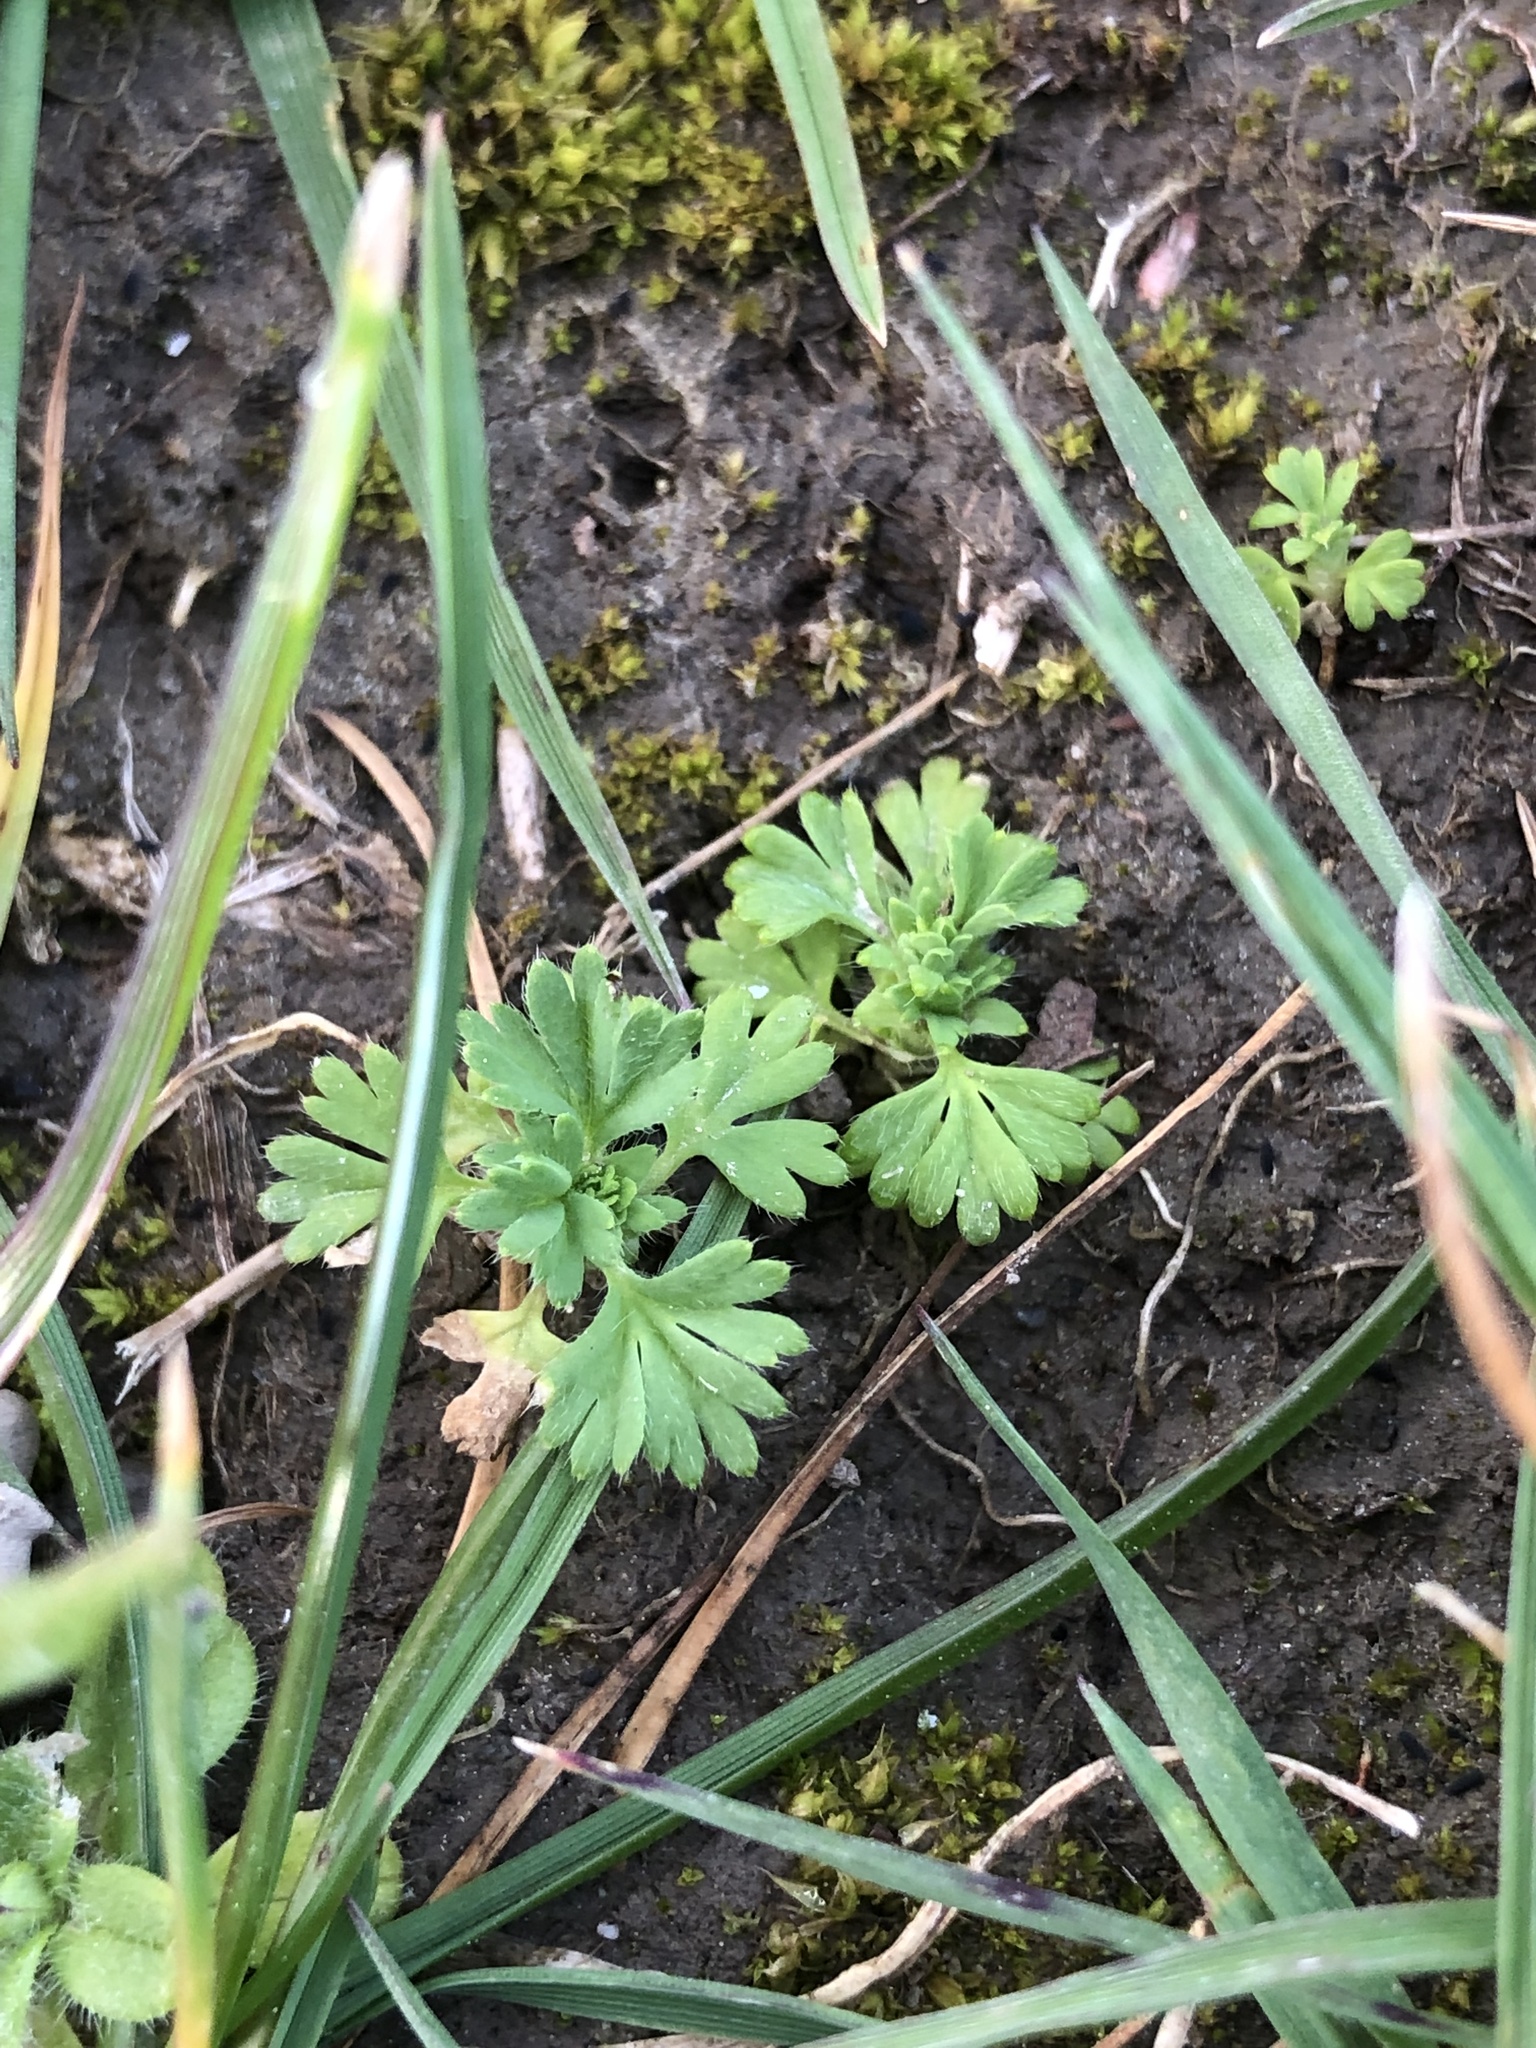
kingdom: Plantae
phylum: Tracheophyta
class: Magnoliopsida
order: Rosales
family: Rosaceae
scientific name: Rosaceae
